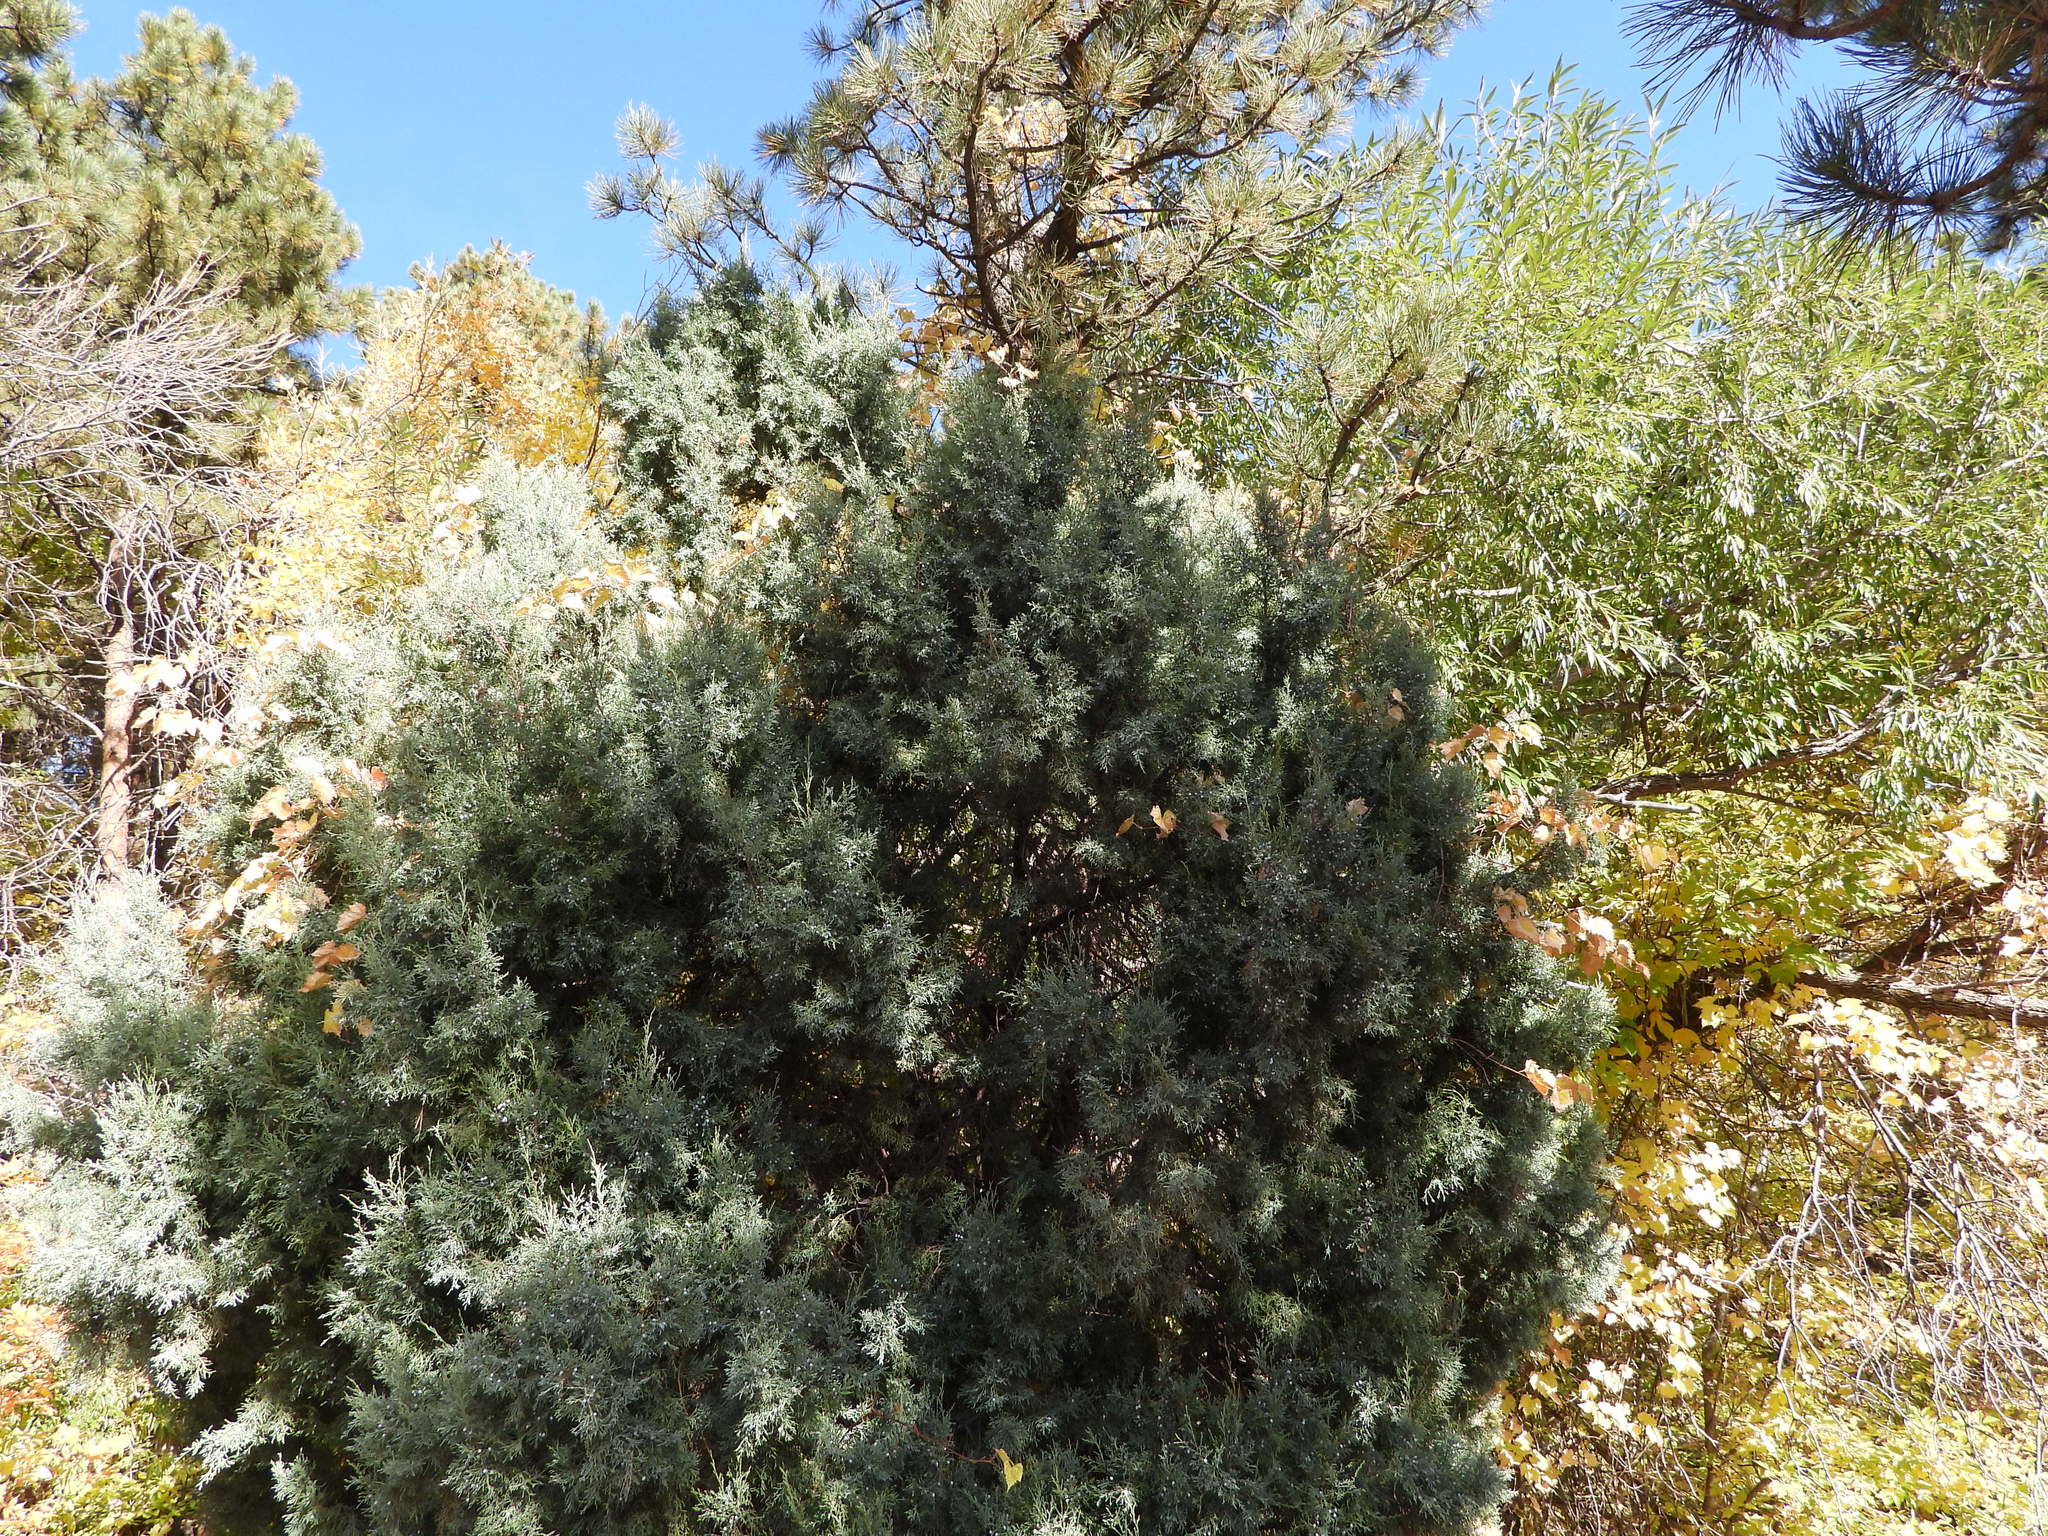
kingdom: Plantae
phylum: Tracheophyta
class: Pinopsida
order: Pinales
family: Cupressaceae
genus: Juniperus
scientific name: Juniperus scopulorum
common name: Rocky mountain juniper
